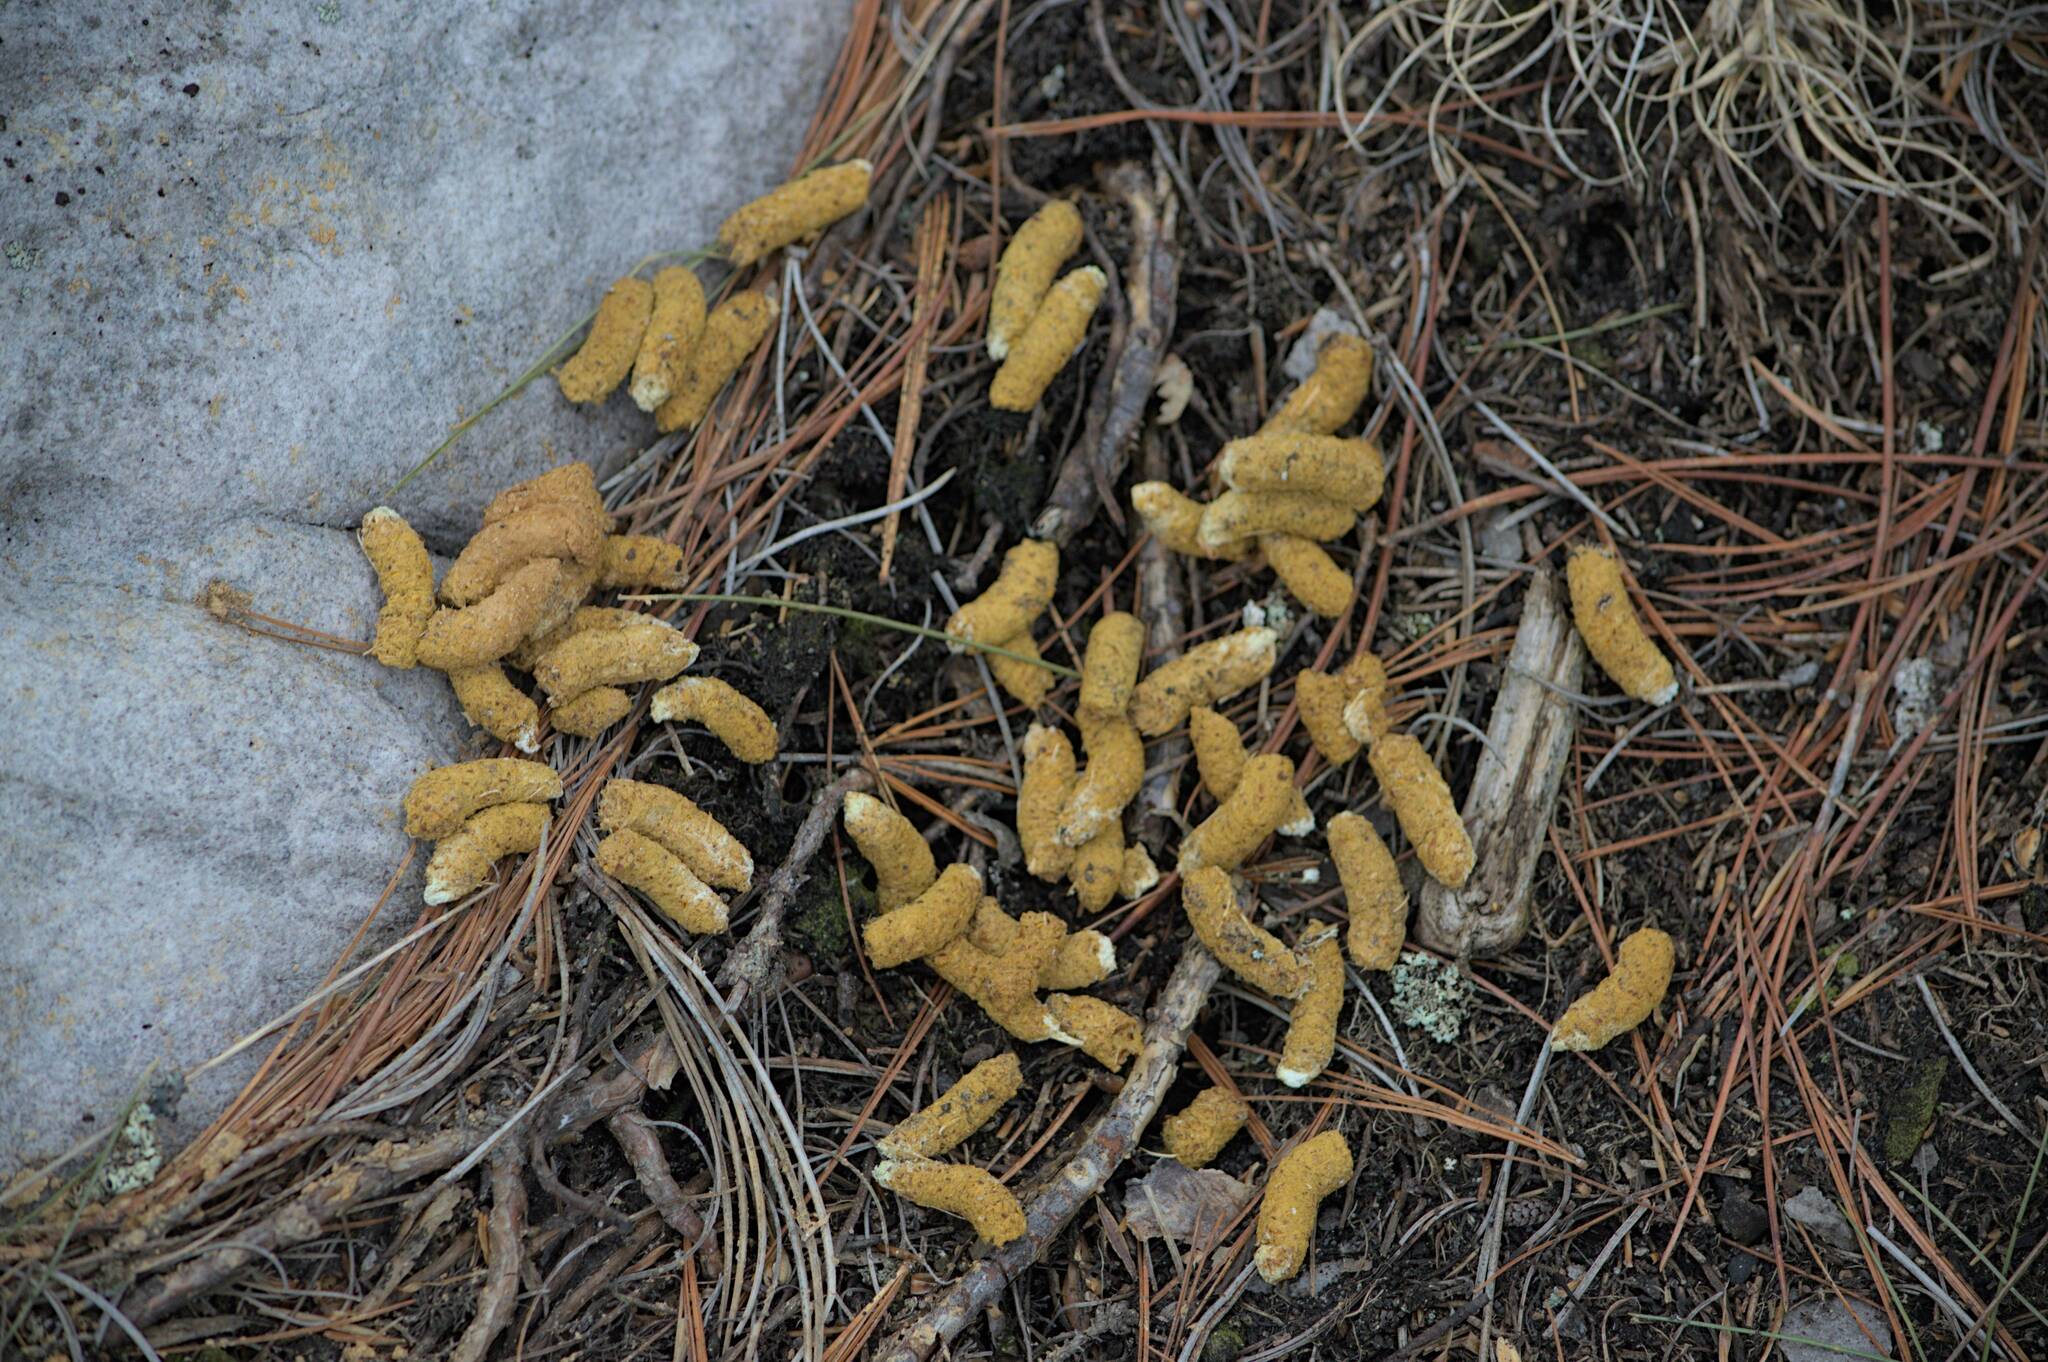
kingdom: Animalia
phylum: Chordata
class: Aves
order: Galliformes
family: Phasianidae
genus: Bonasa
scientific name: Bonasa umbellus
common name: Ruffed grouse
